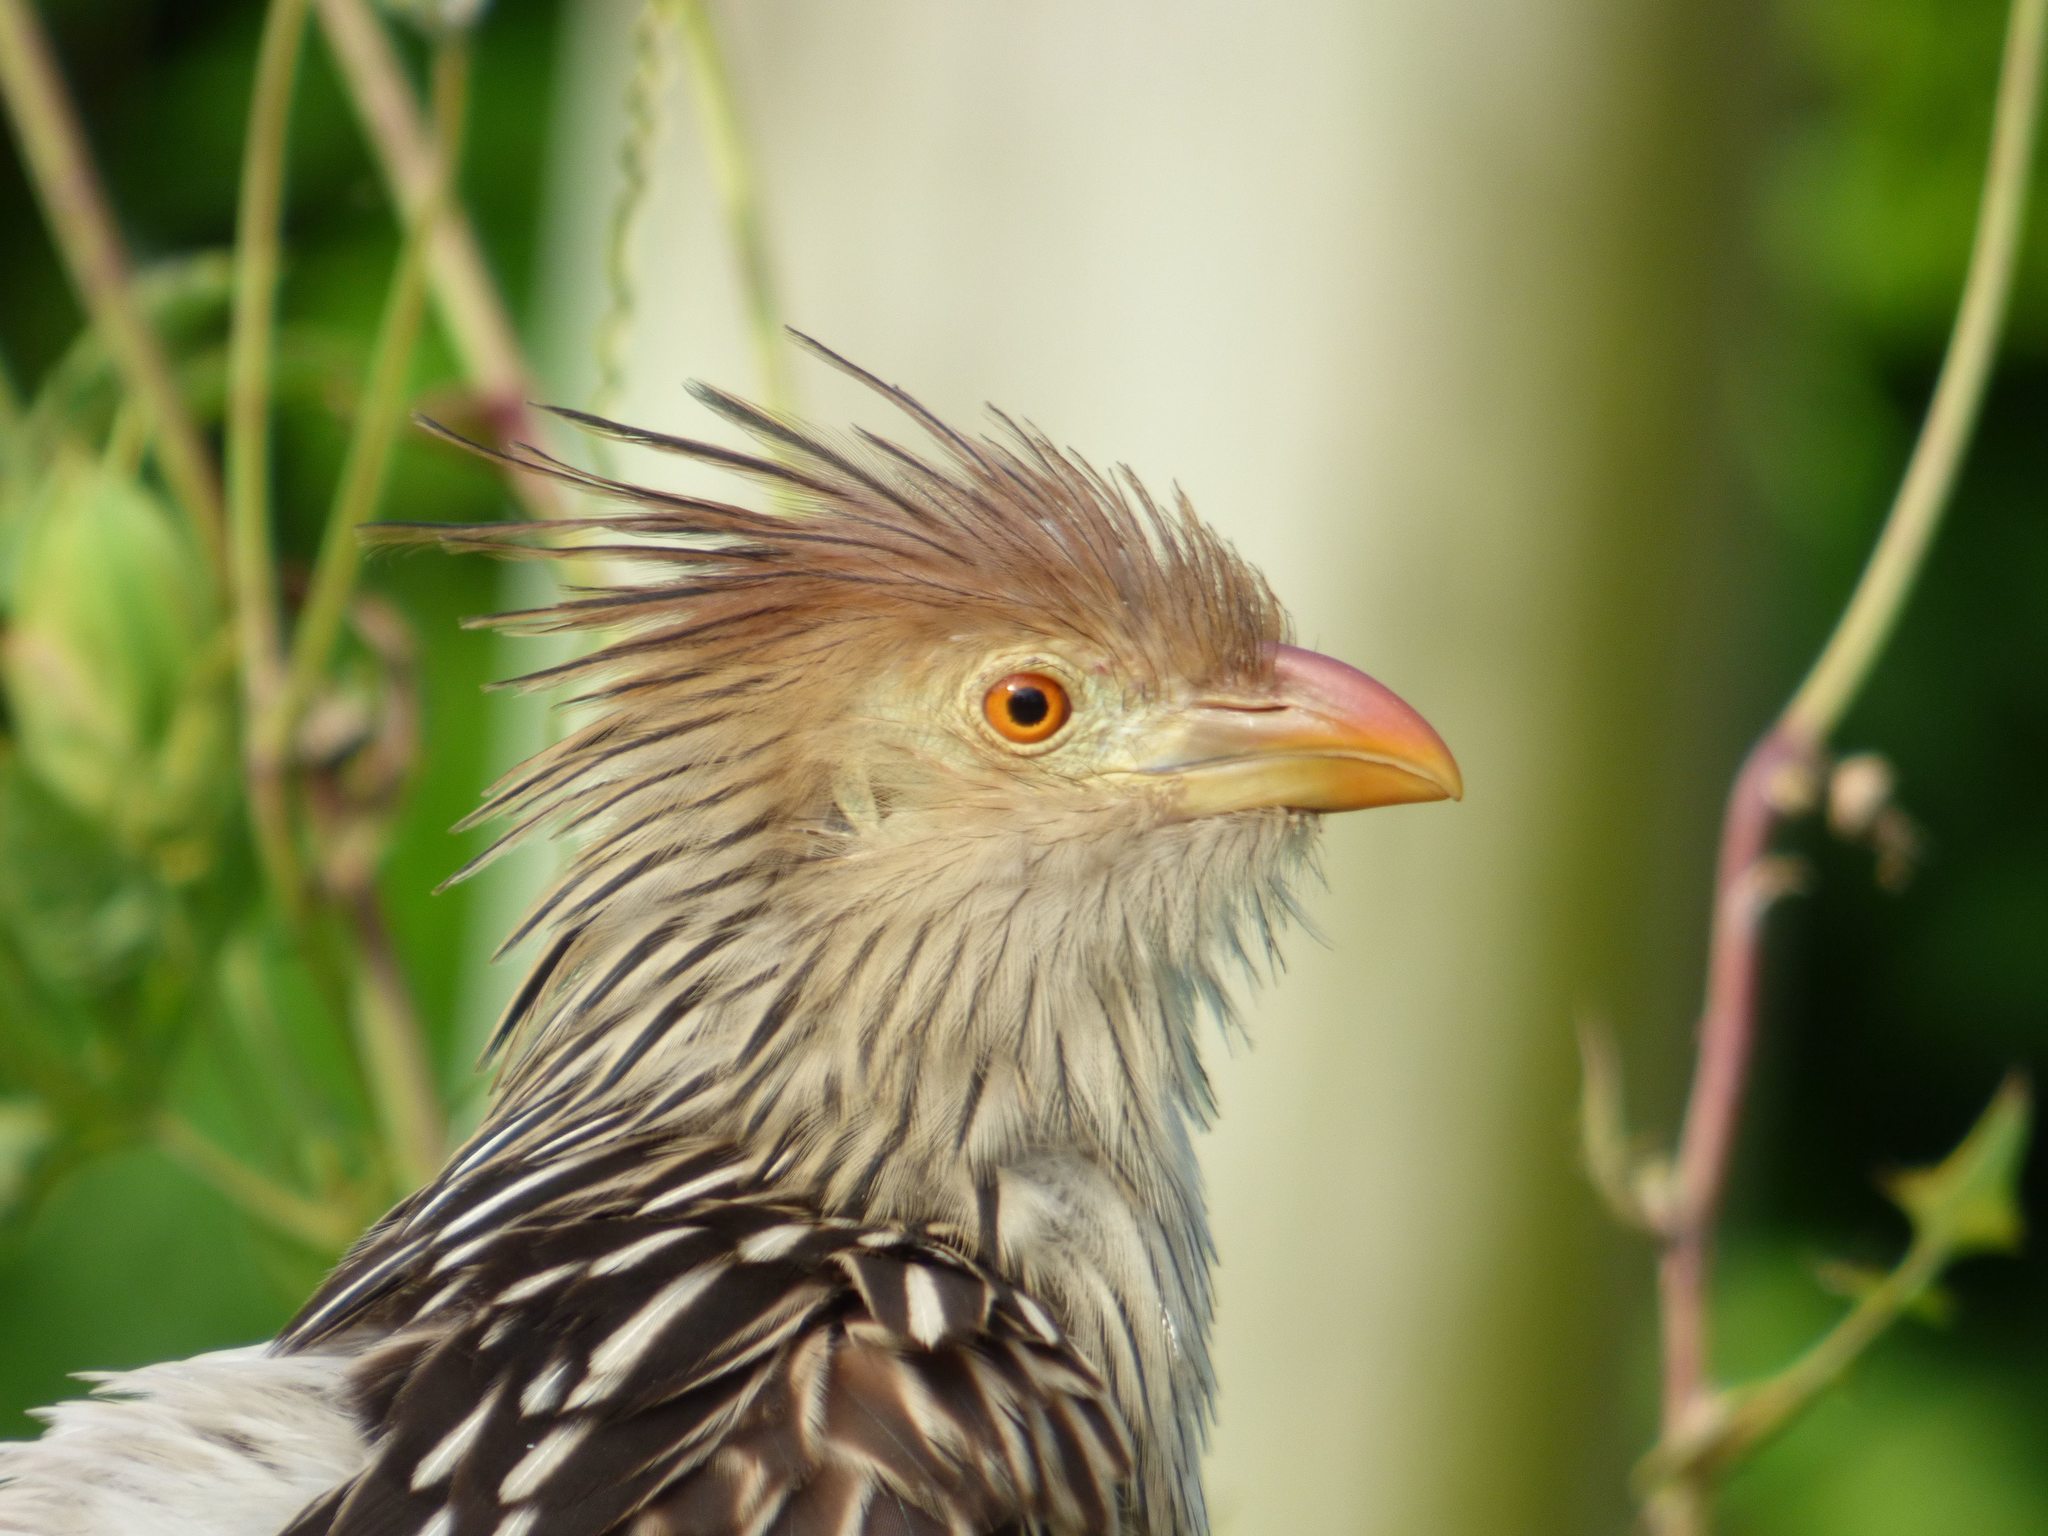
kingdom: Animalia
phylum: Chordata
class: Aves
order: Cuculiformes
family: Cuculidae
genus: Guira
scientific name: Guira guira
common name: Guira cuckoo
